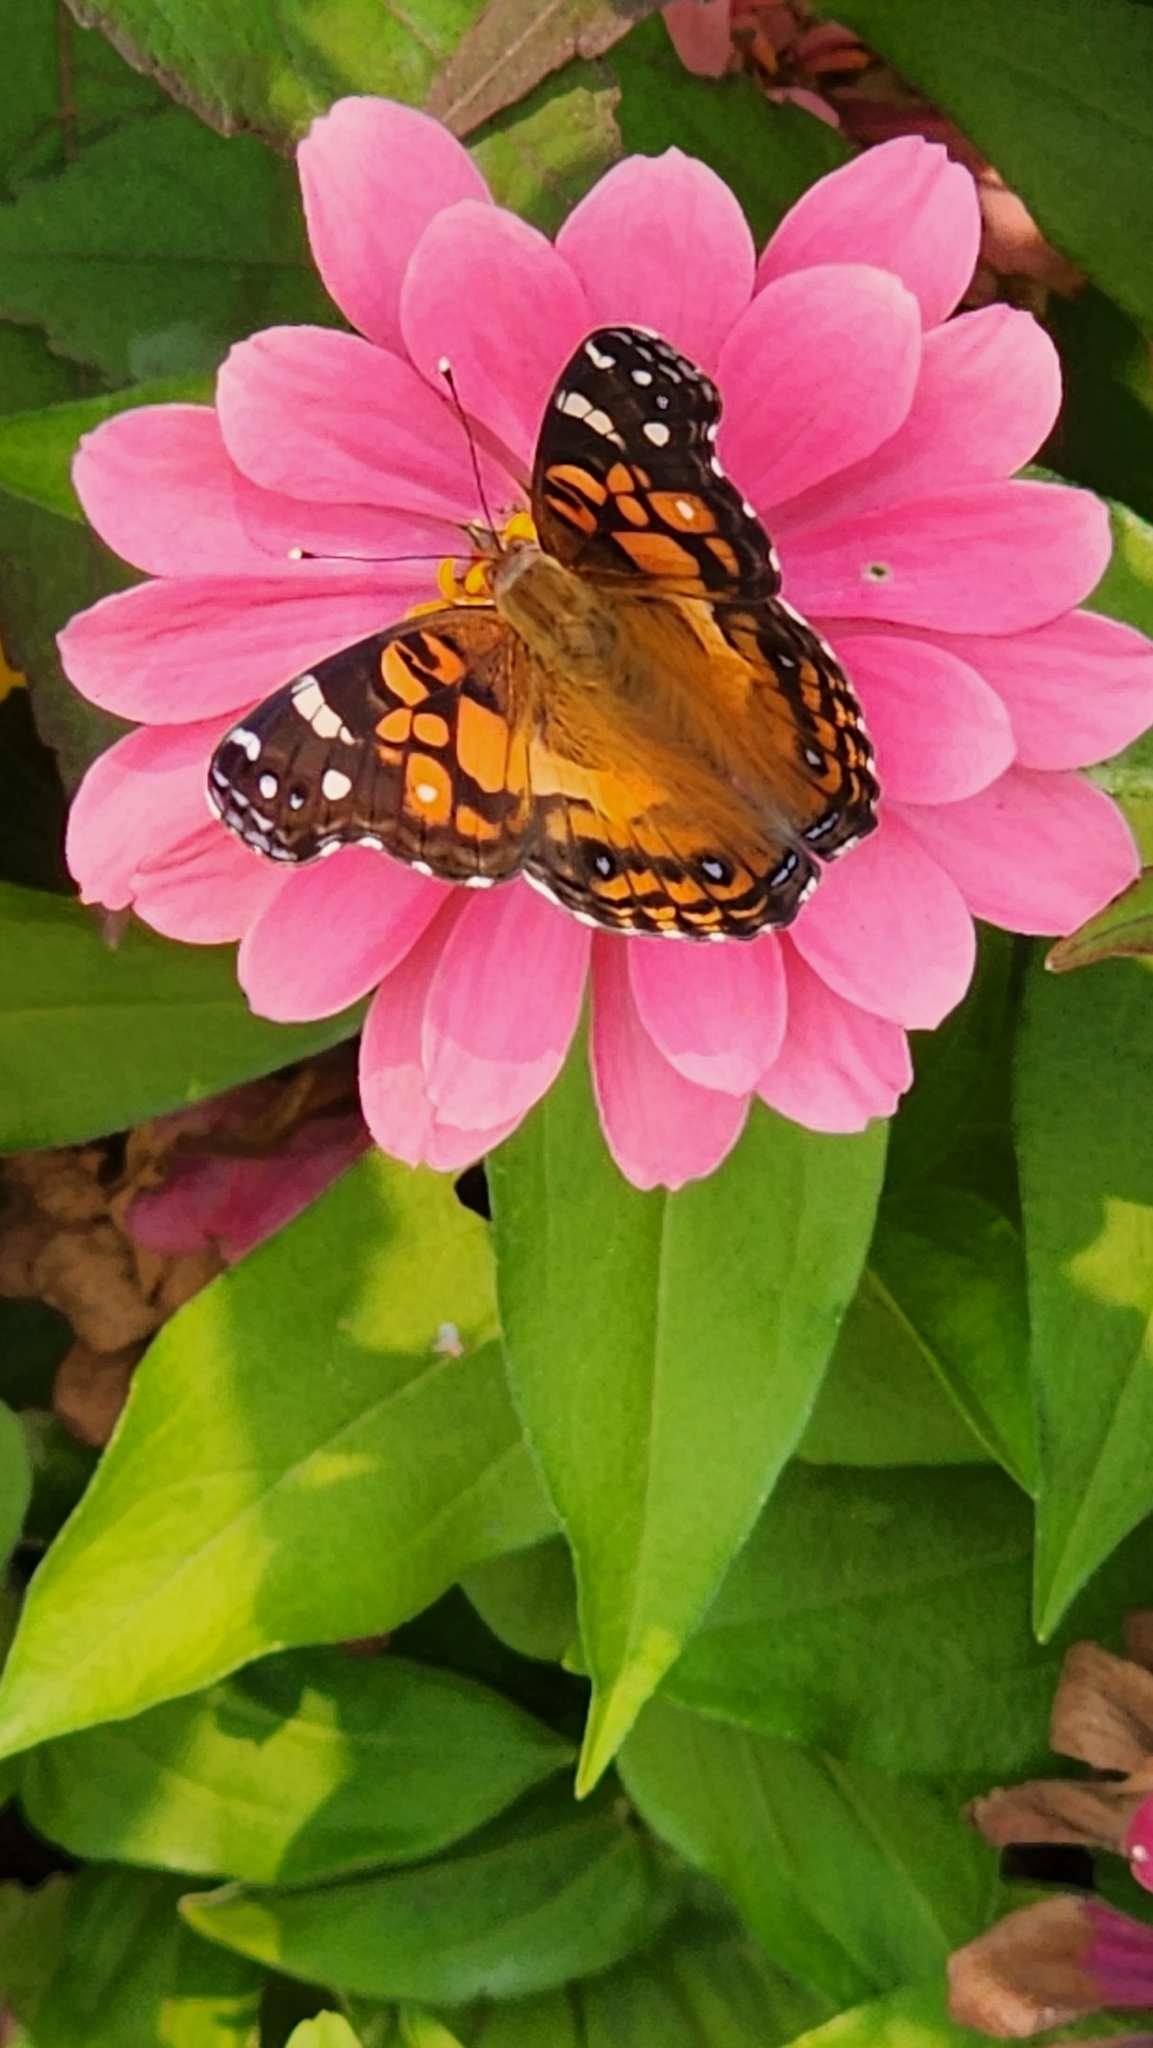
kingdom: Animalia
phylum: Arthropoda
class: Insecta
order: Lepidoptera
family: Nymphalidae
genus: Vanessa
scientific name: Vanessa virginiensis
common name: American lady
